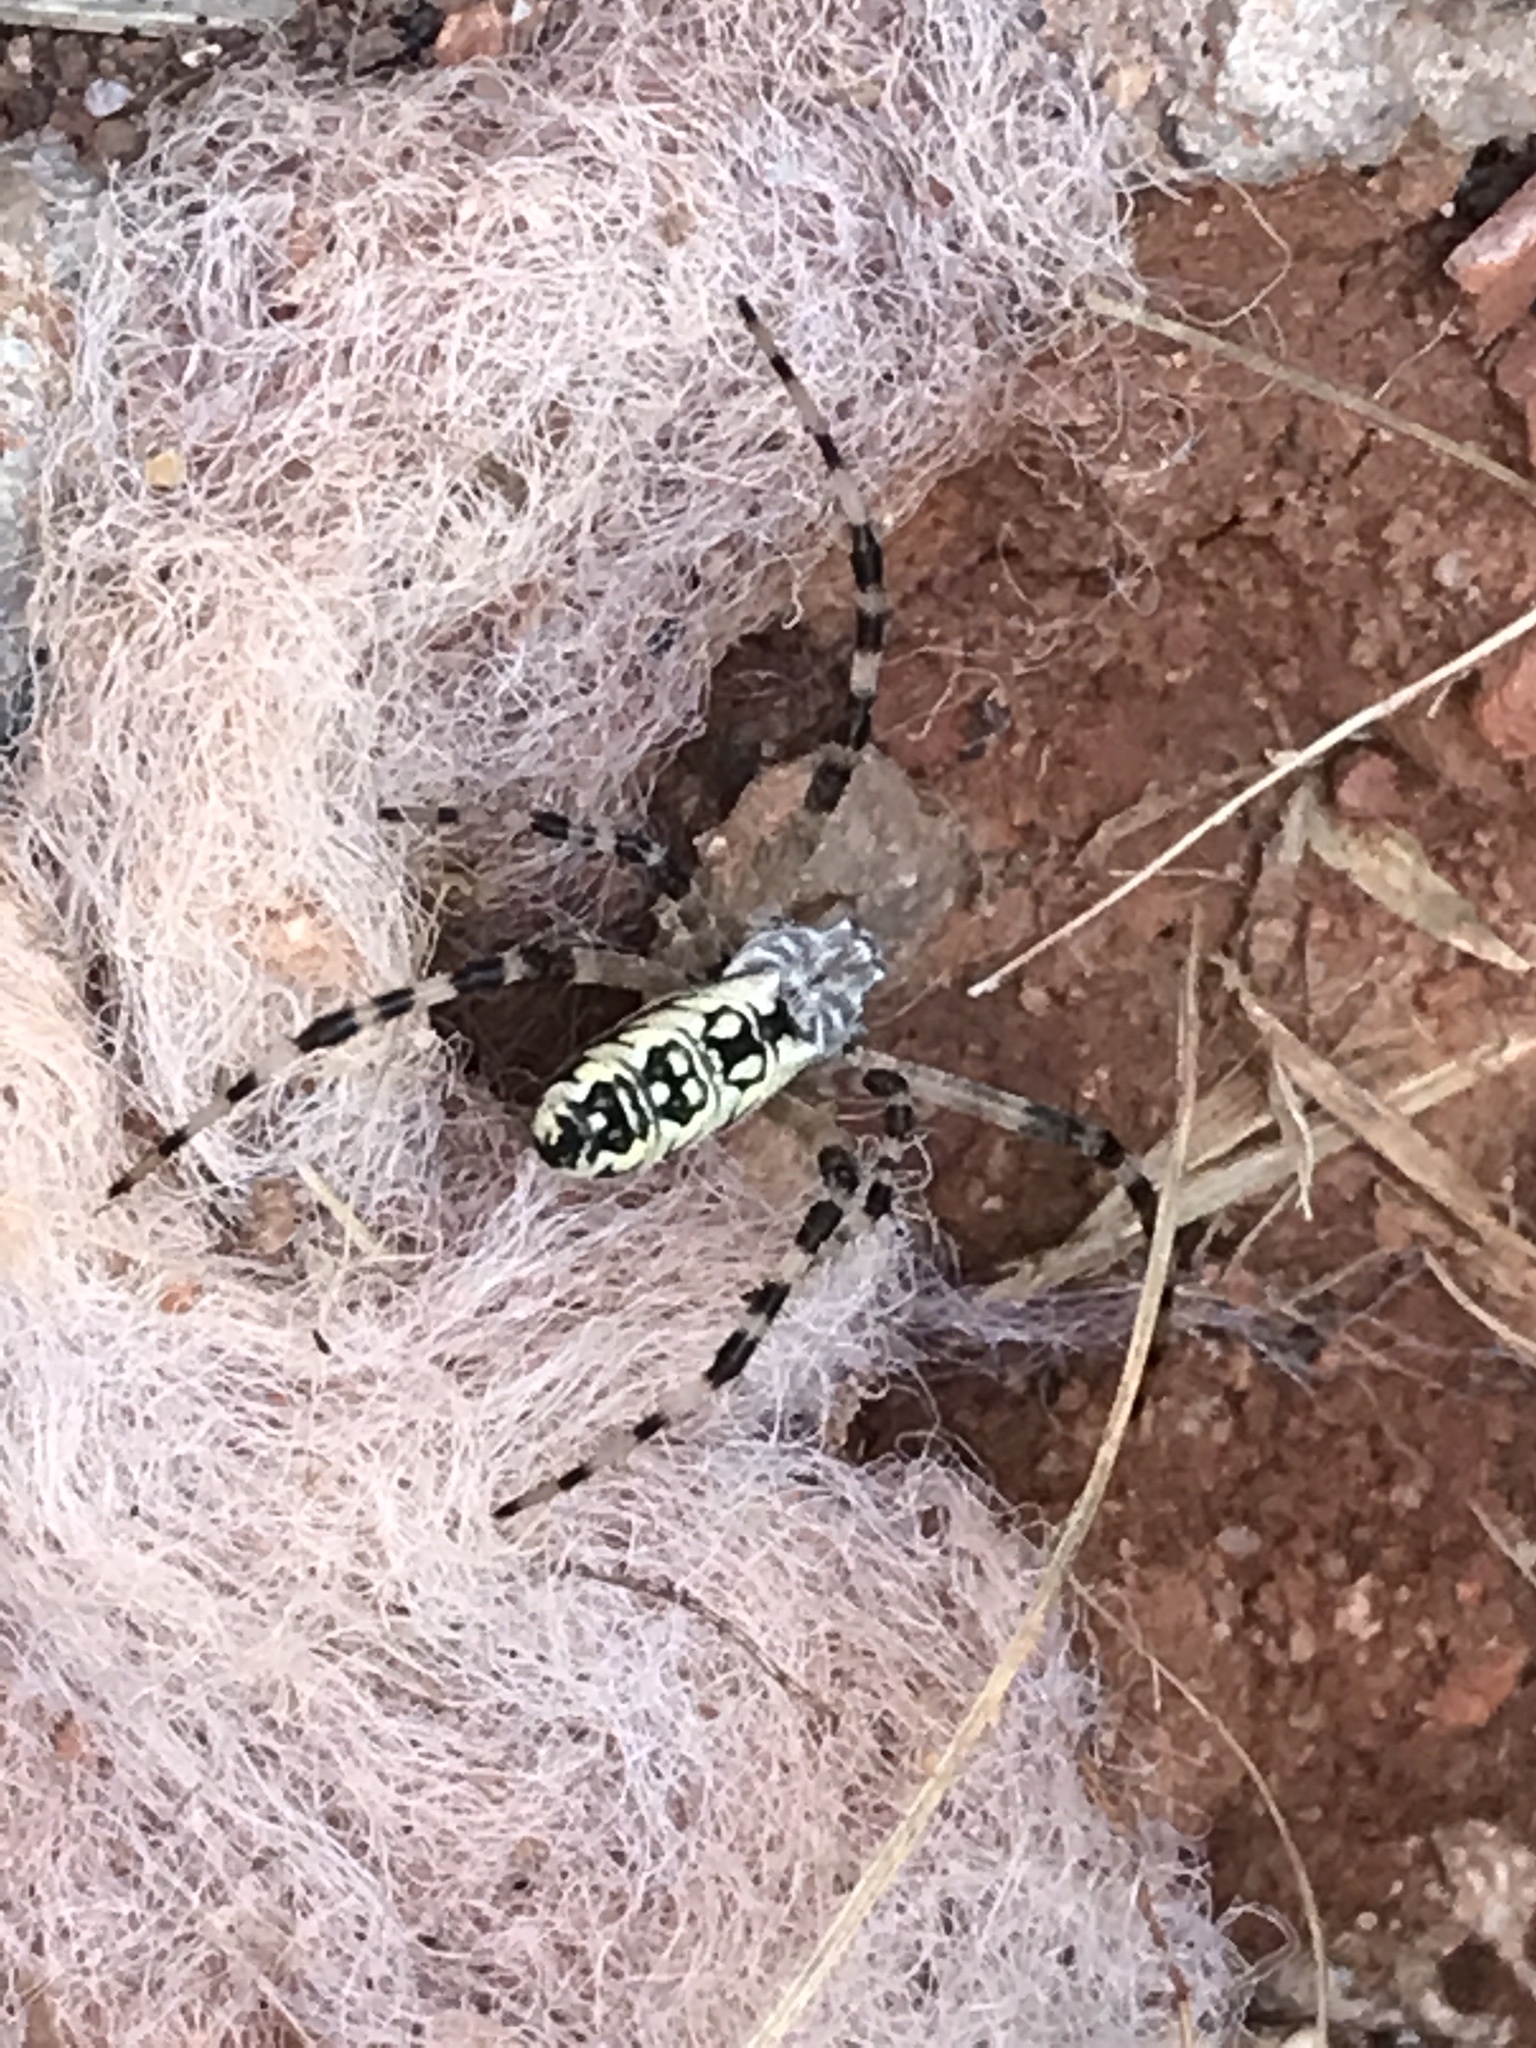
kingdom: Animalia
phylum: Arthropoda
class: Arachnida
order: Araneae
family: Araneidae
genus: Argiope
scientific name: Argiope aurantia
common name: Orb weavers
